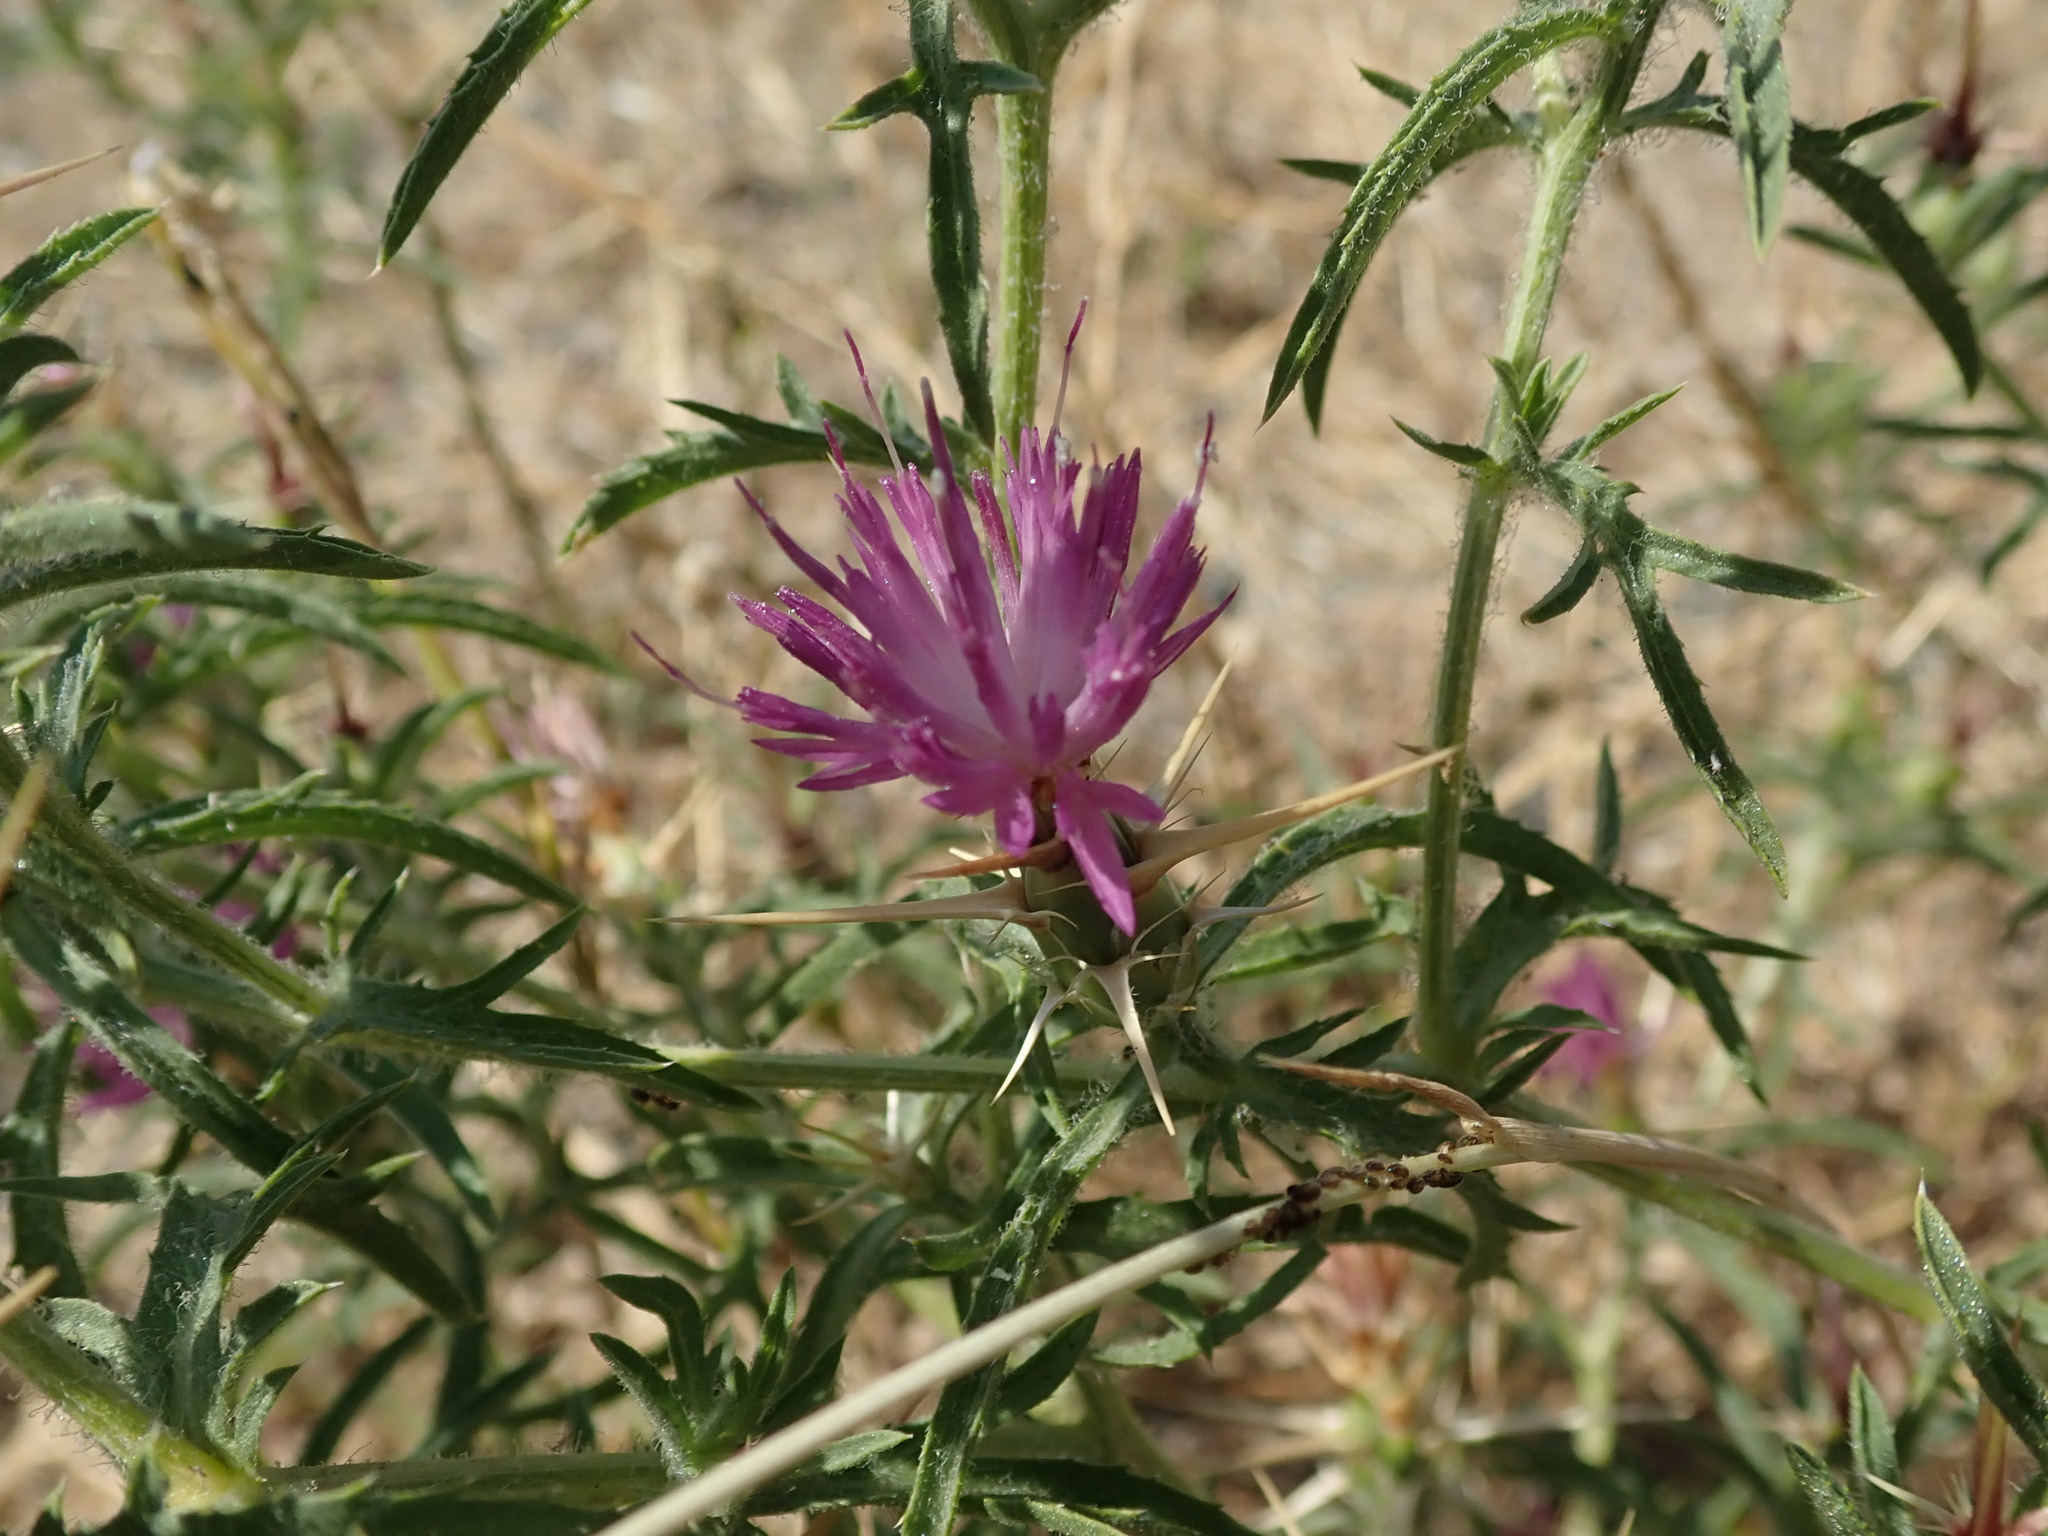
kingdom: Plantae
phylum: Tracheophyta
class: Magnoliopsida
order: Asterales
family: Asteraceae
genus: Centaurea
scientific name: Centaurea calcitrapa
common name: Red star-thistle
